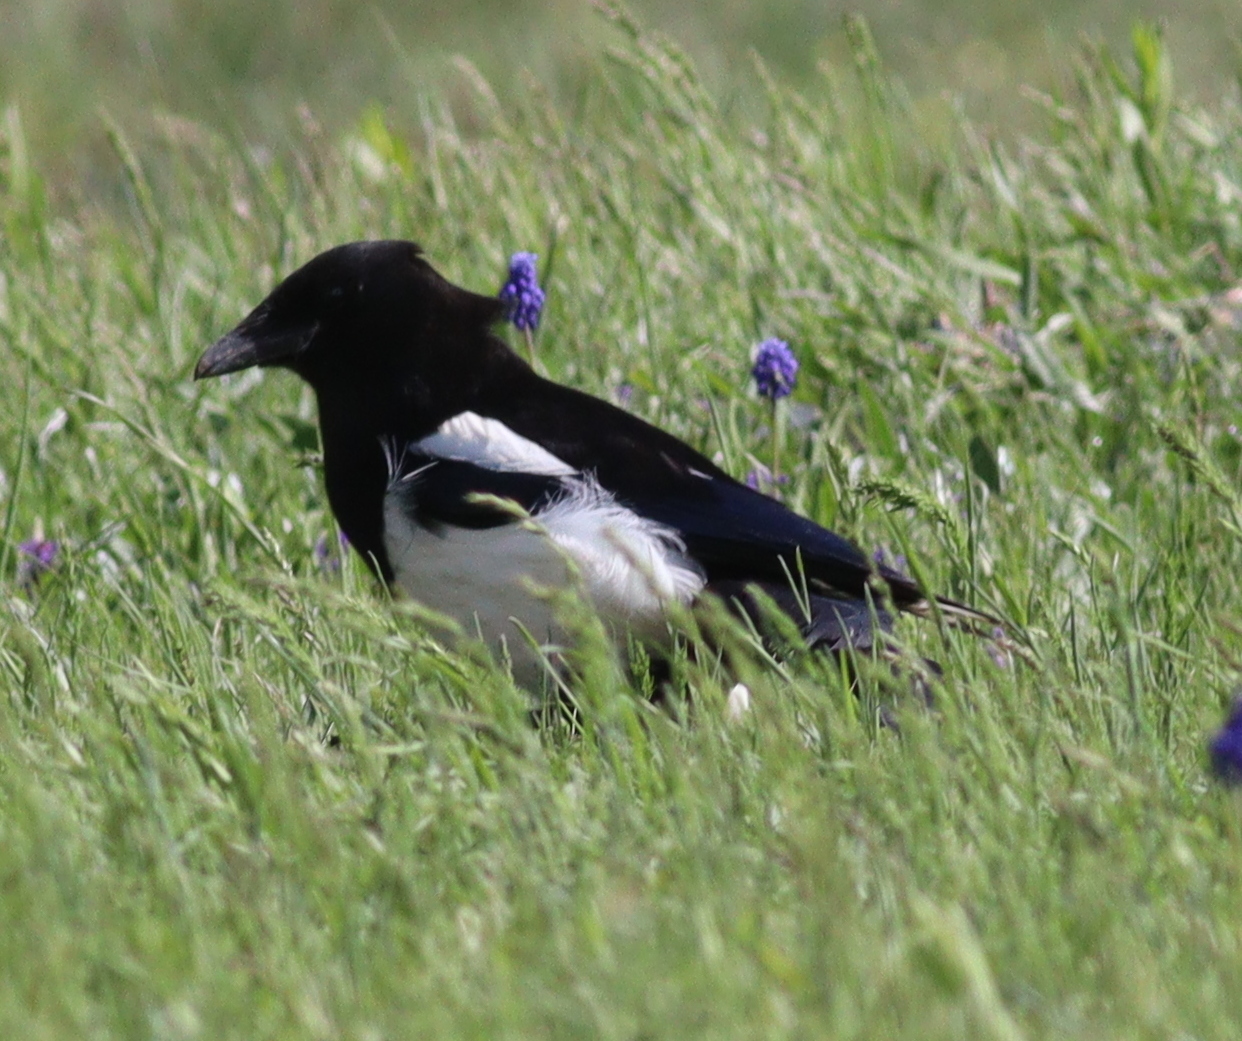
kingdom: Animalia
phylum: Chordata
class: Aves
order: Passeriformes
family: Corvidae
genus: Pica
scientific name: Pica pica
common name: Eurasian magpie
